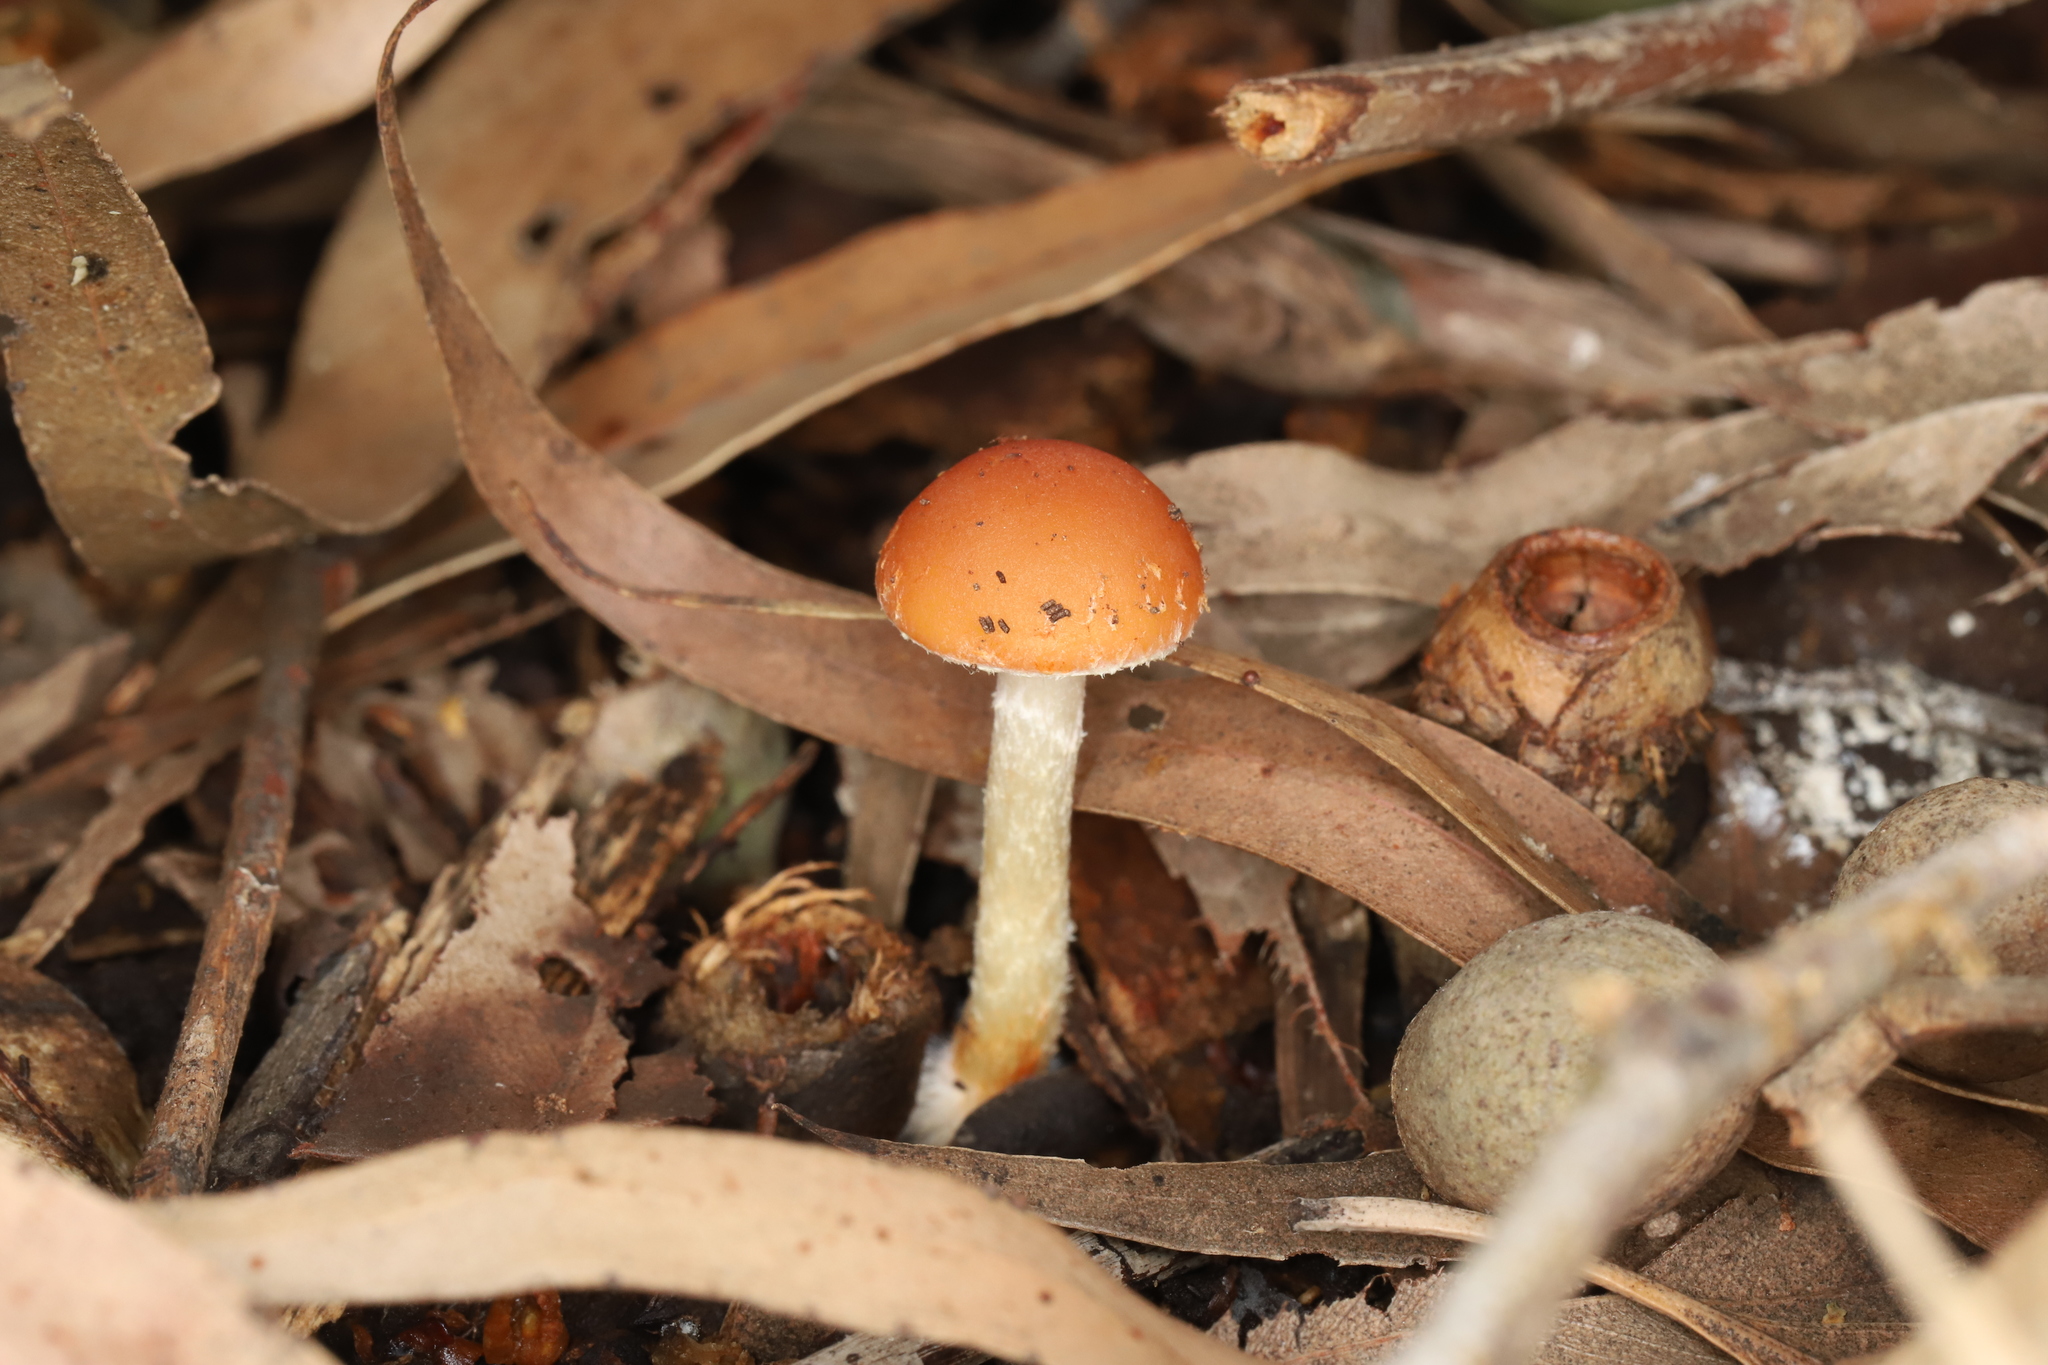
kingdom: Fungi
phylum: Basidiomycota
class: Agaricomycetes
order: Agaricales
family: Strophariaceae
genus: Leratiomyces
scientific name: Leratiomyces ceres
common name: Redlead roundhead
